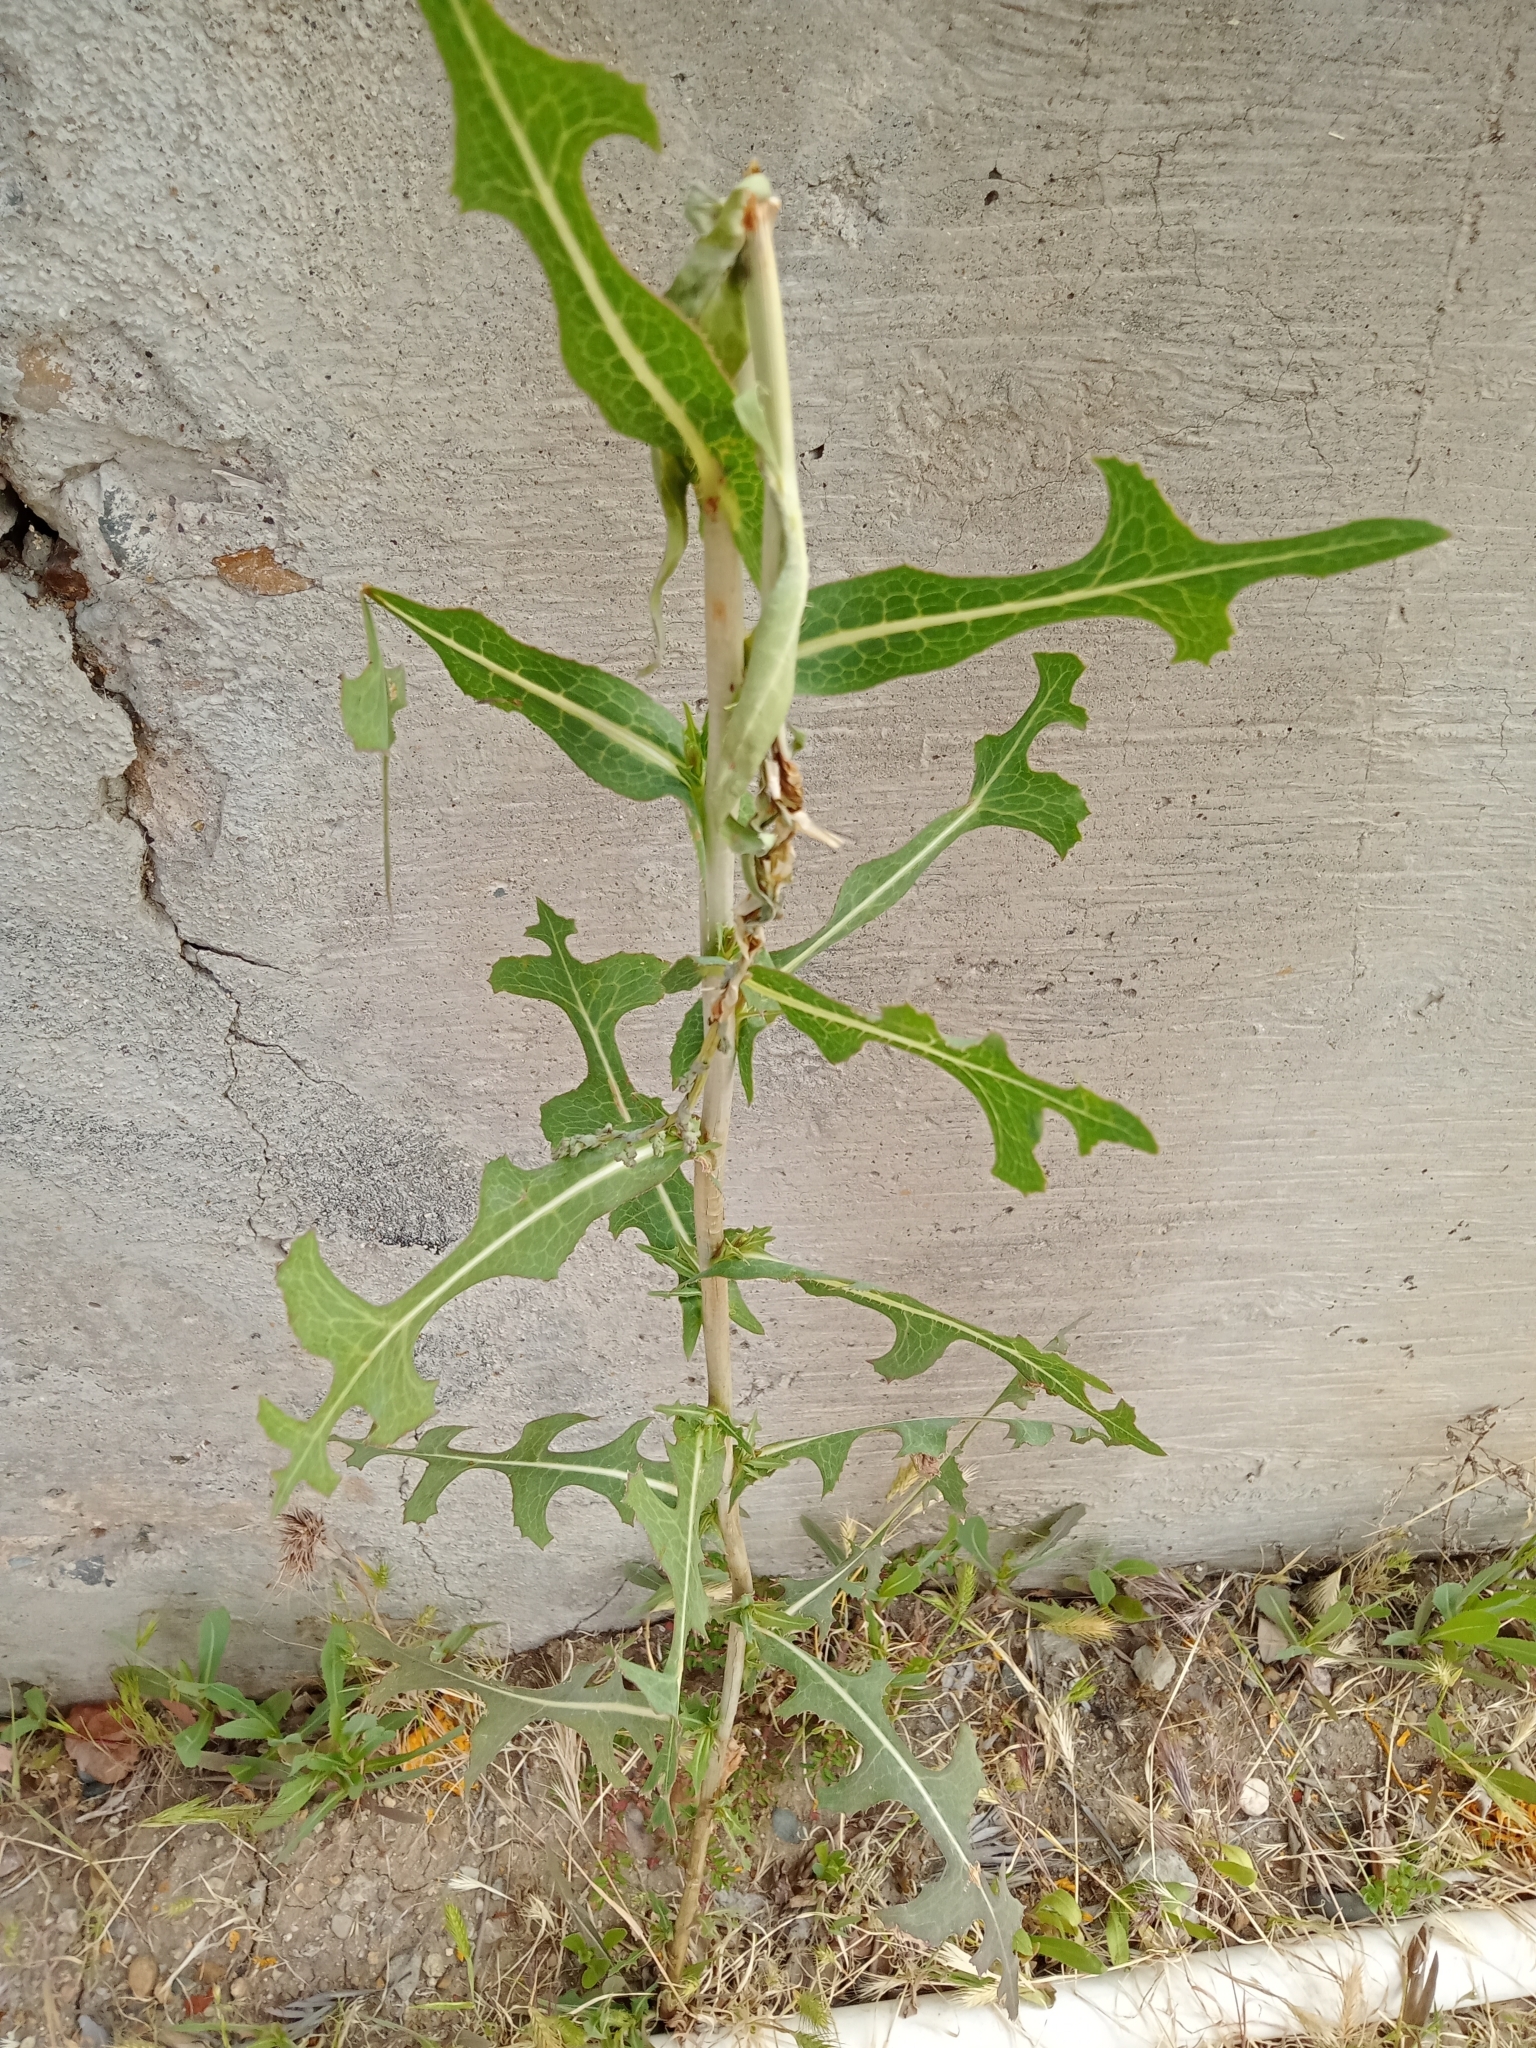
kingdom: Plantae
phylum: Tracheophyta
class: Magnoliopsida
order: Asterales
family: Asteraceae
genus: Lactuca
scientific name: Lactuca serriola
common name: Prickly lettuce
